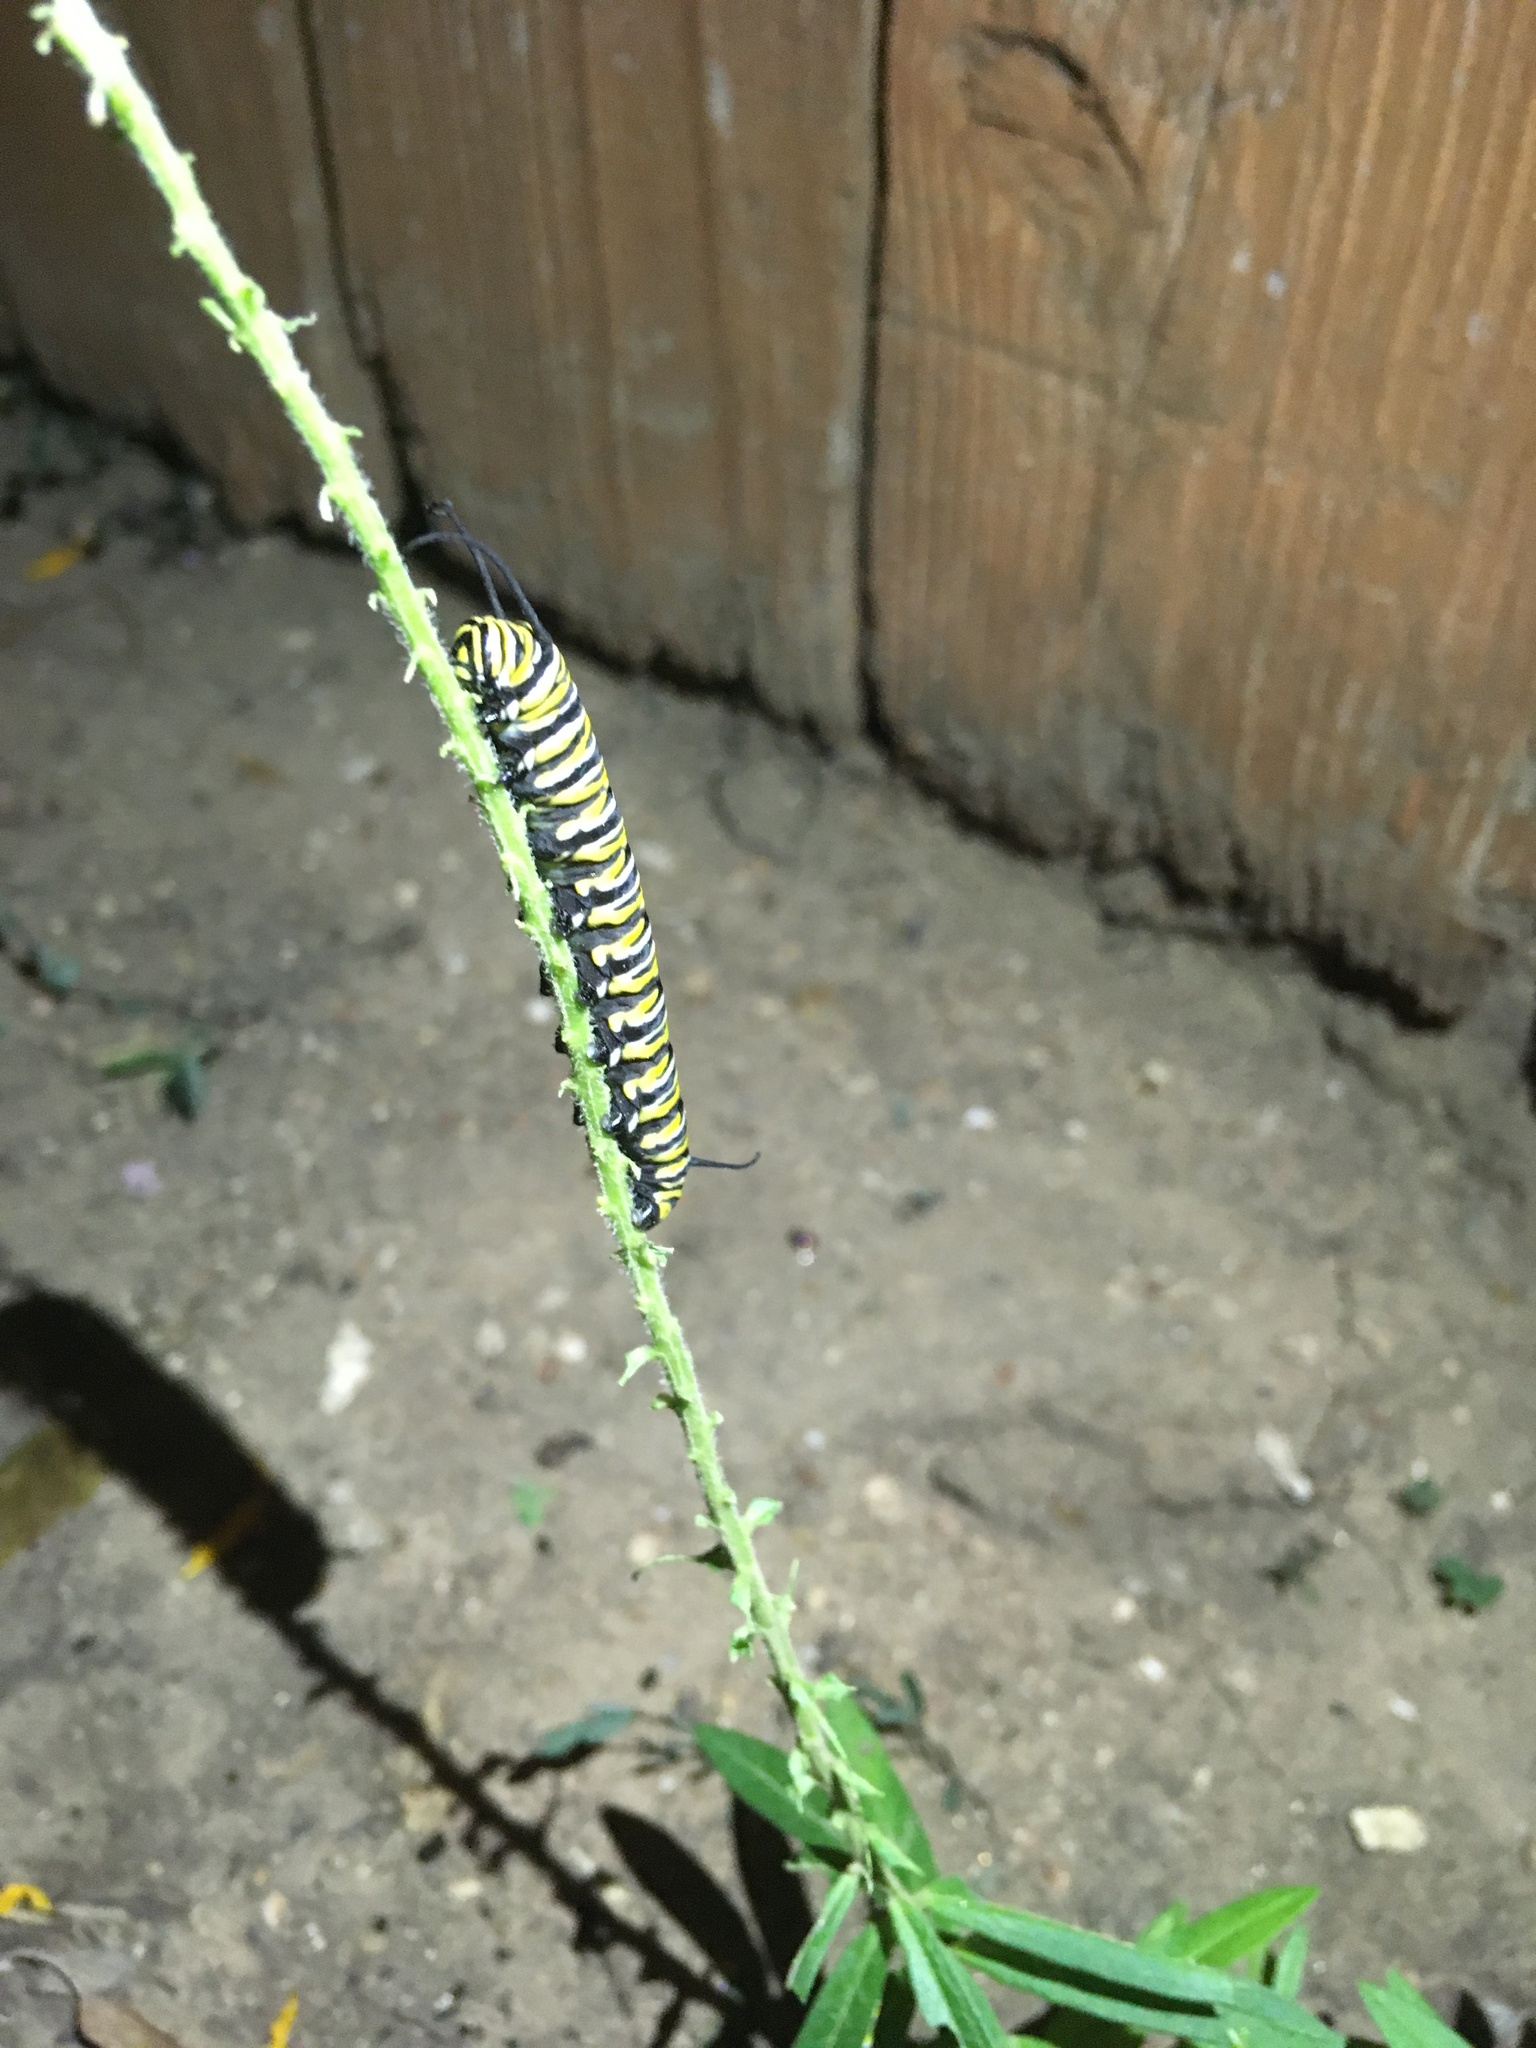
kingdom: Animalia
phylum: Arthropoda
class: Insecta
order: Lepidoptera
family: Nymphalidae
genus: Danaus
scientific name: Danaus plexippus
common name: Monarch
